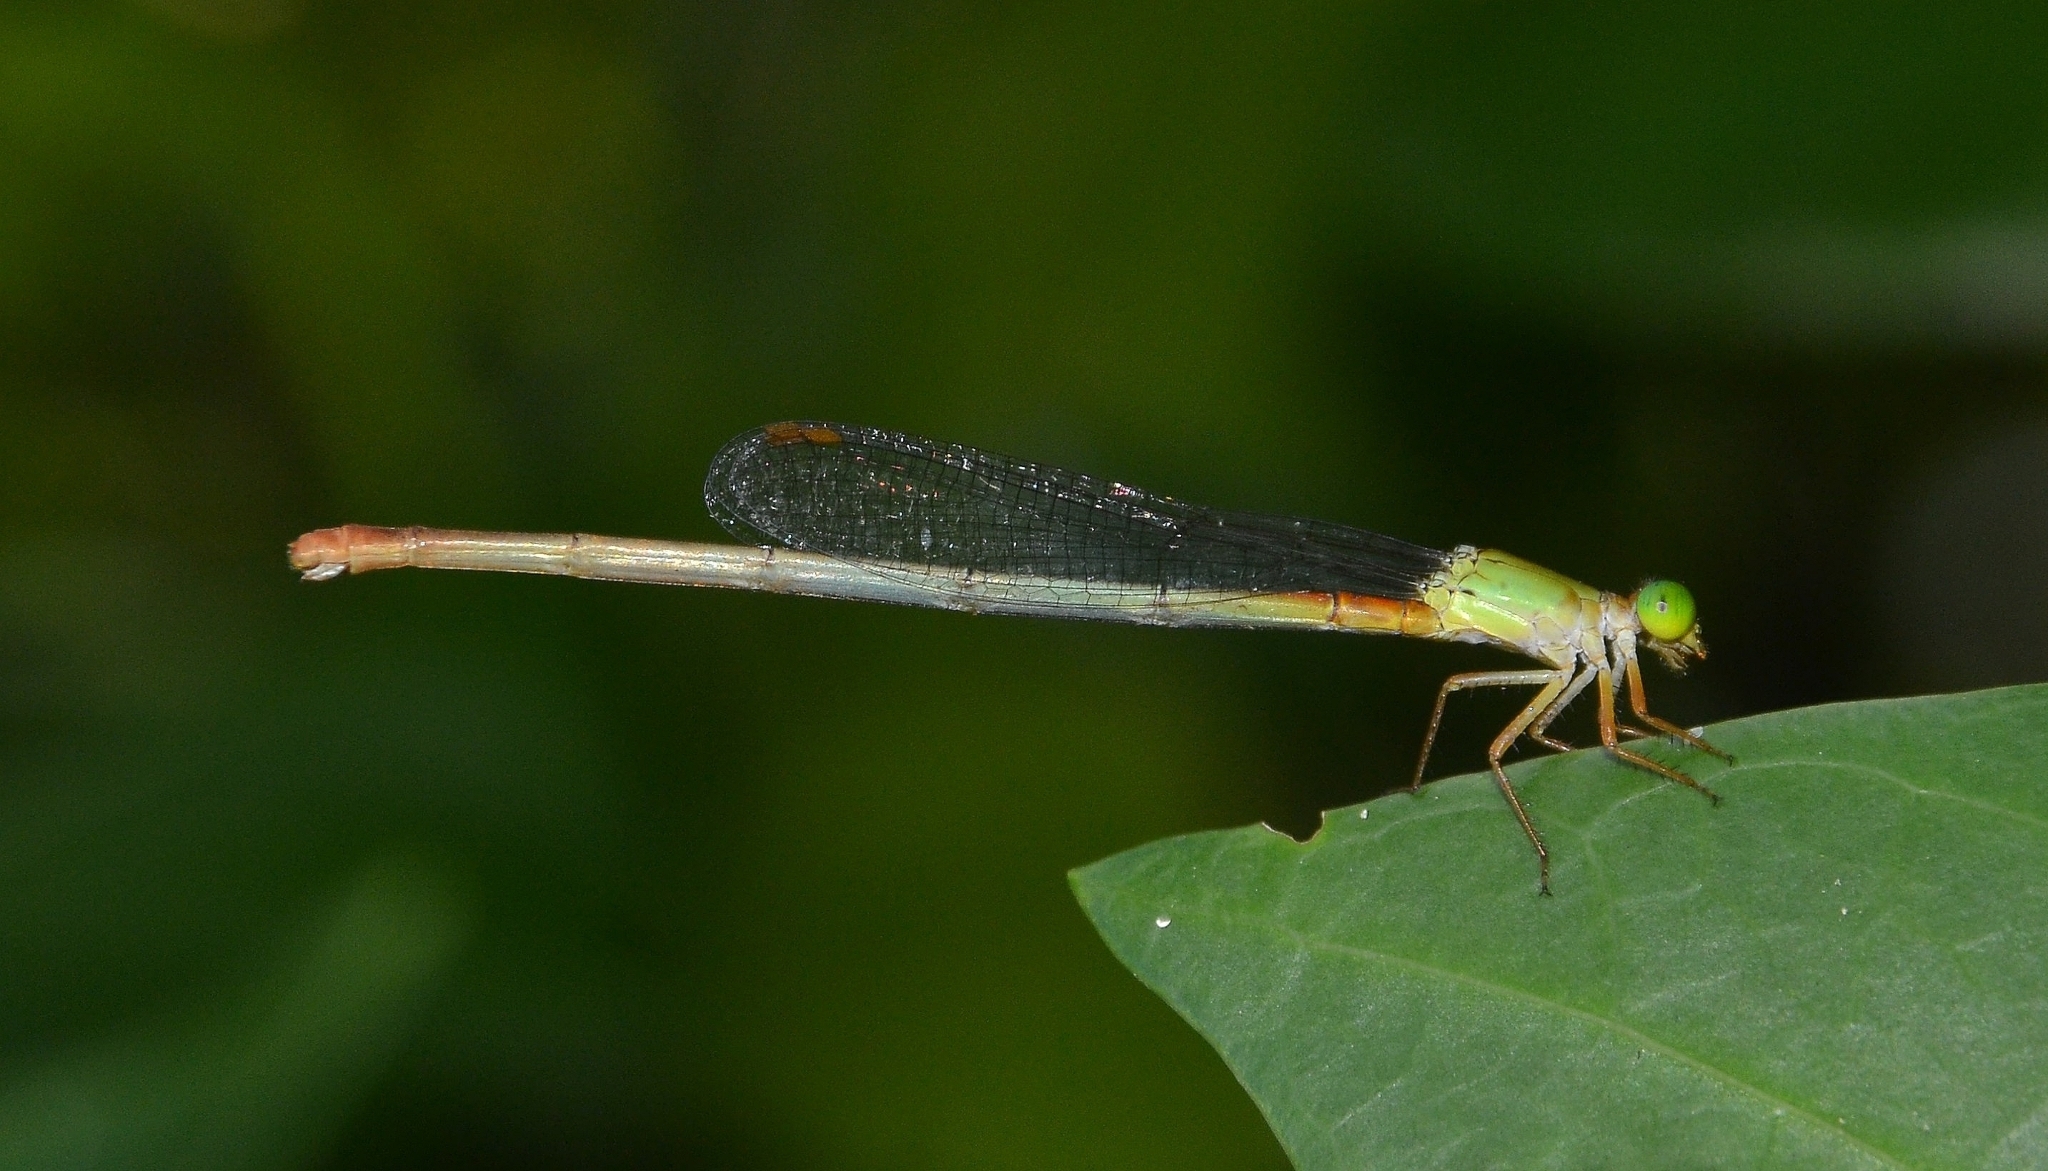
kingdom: Animalia
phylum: Arthropoda
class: Insecta
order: Odonata
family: Coenagrionidae
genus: Ceriagrion
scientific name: Ceriagrion cerinorubellum
